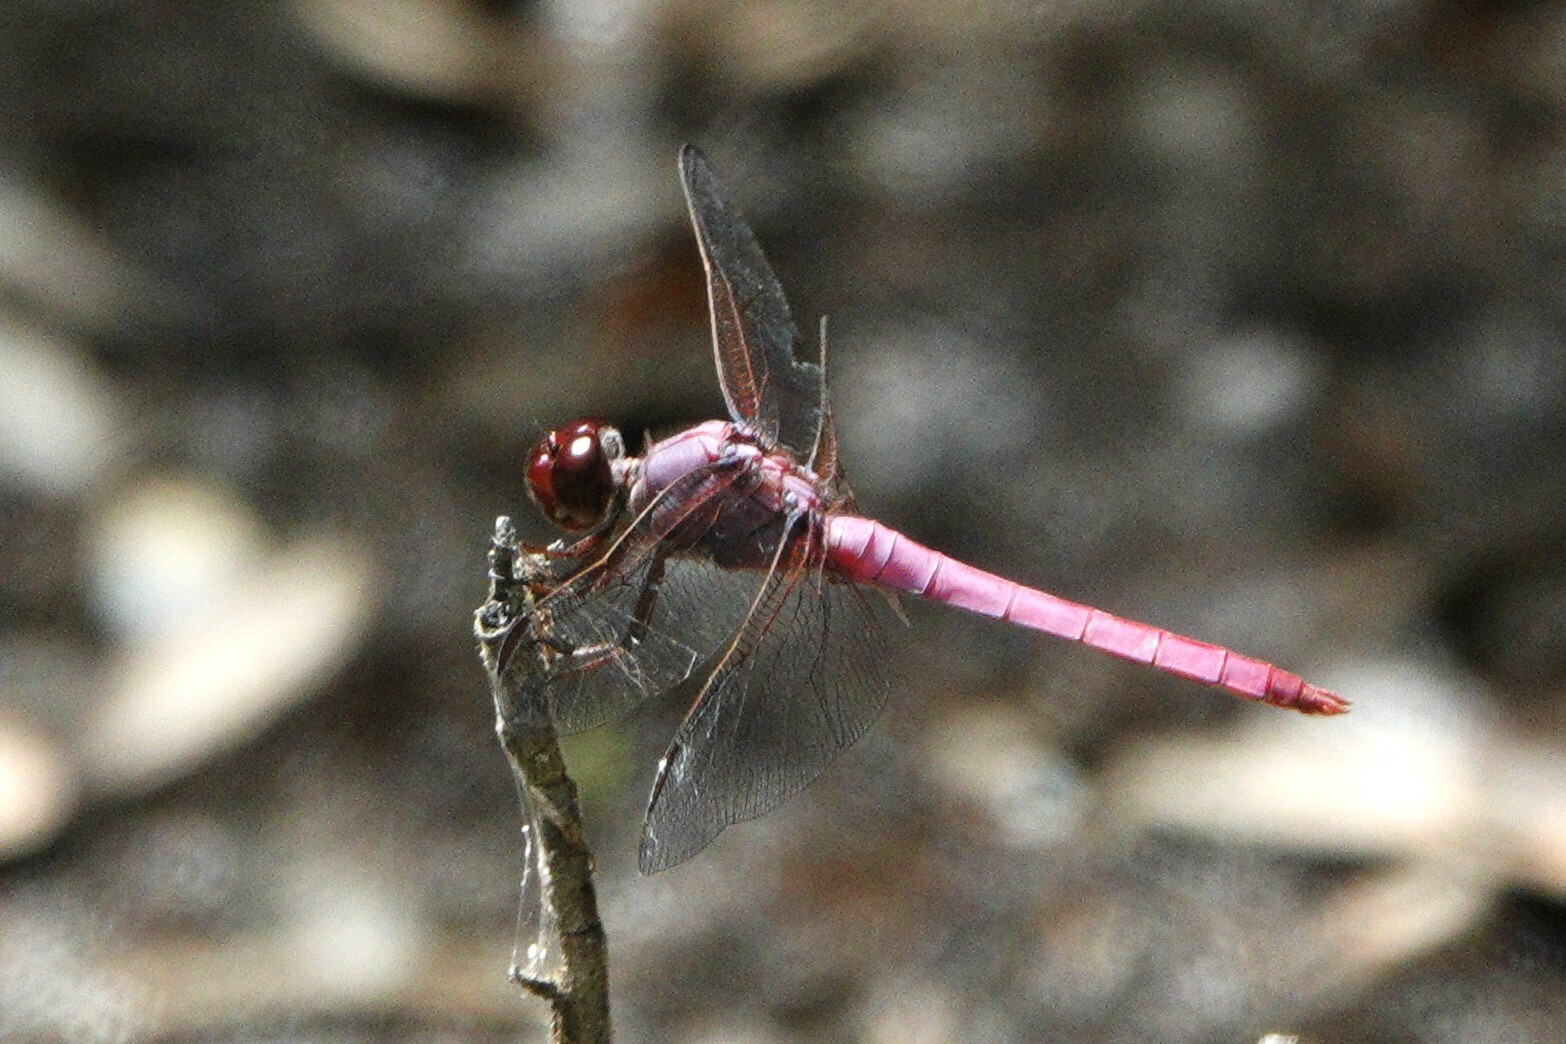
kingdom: Animalia
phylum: Arthropoda
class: Insecta
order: Odonata
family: Libellulidae
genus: Orthemis
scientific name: Orthemis ferruginea
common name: Roseate skimmer
